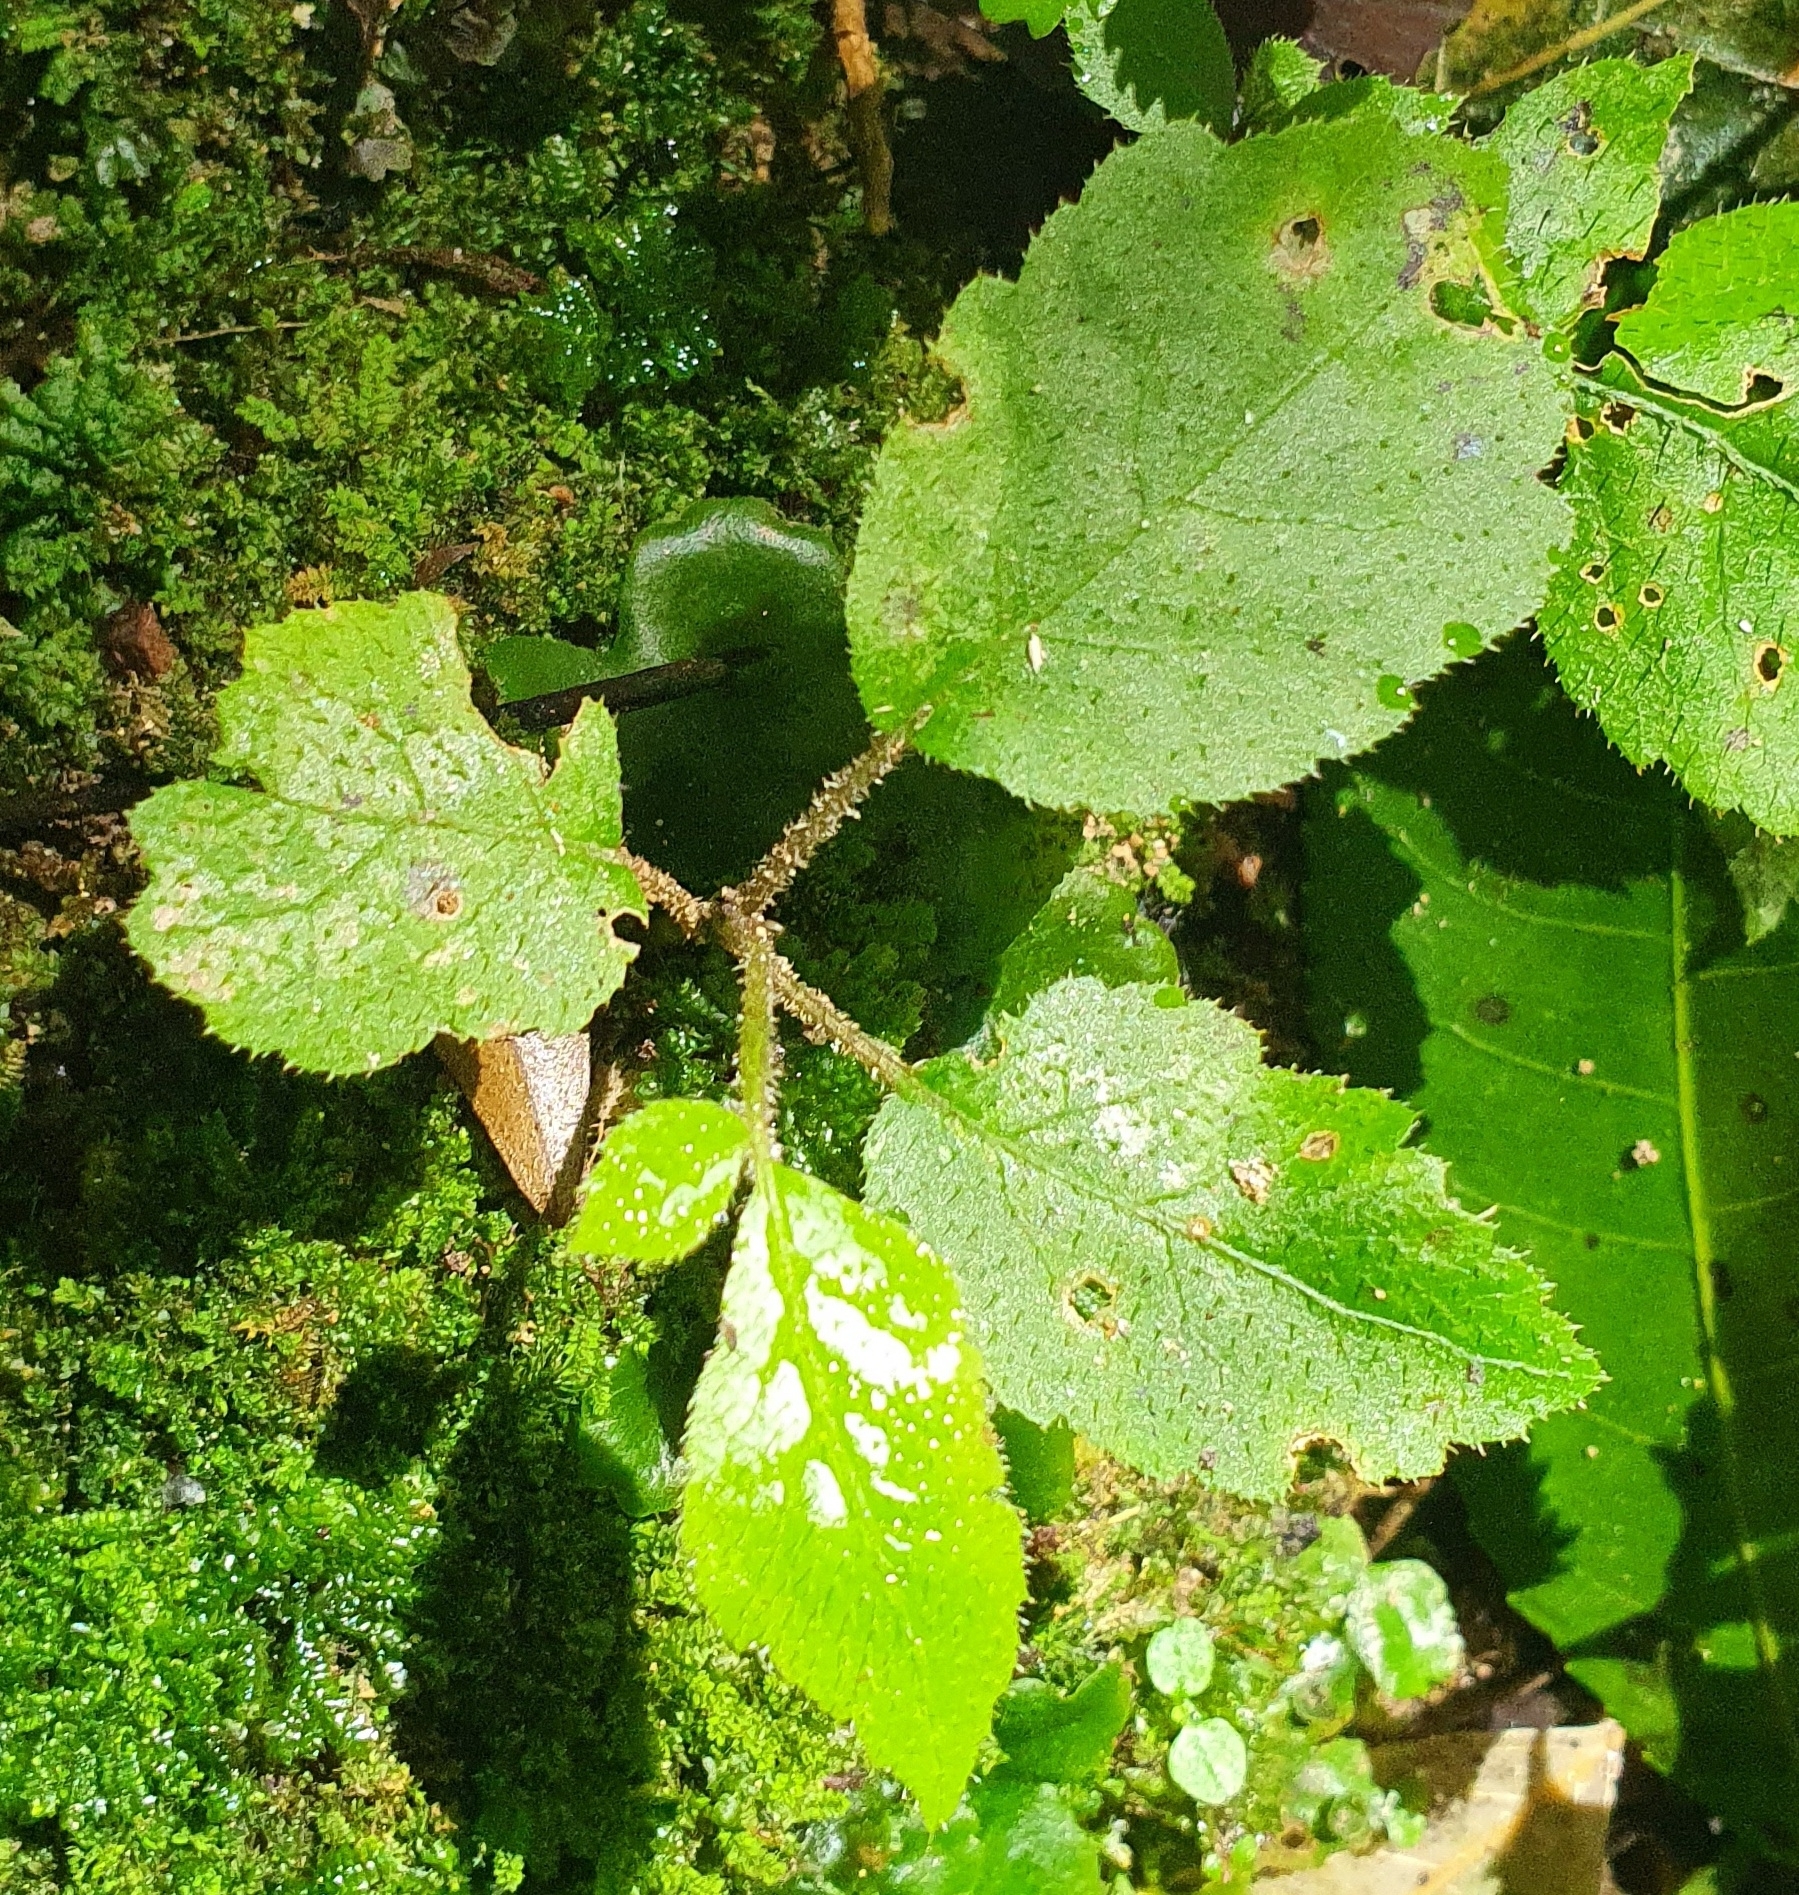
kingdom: Plantae
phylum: Tracheophyta
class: Magnoliopsida
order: Apiales
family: Araliaceae
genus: Schefflera
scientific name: Schefflera digitata
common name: Pate
